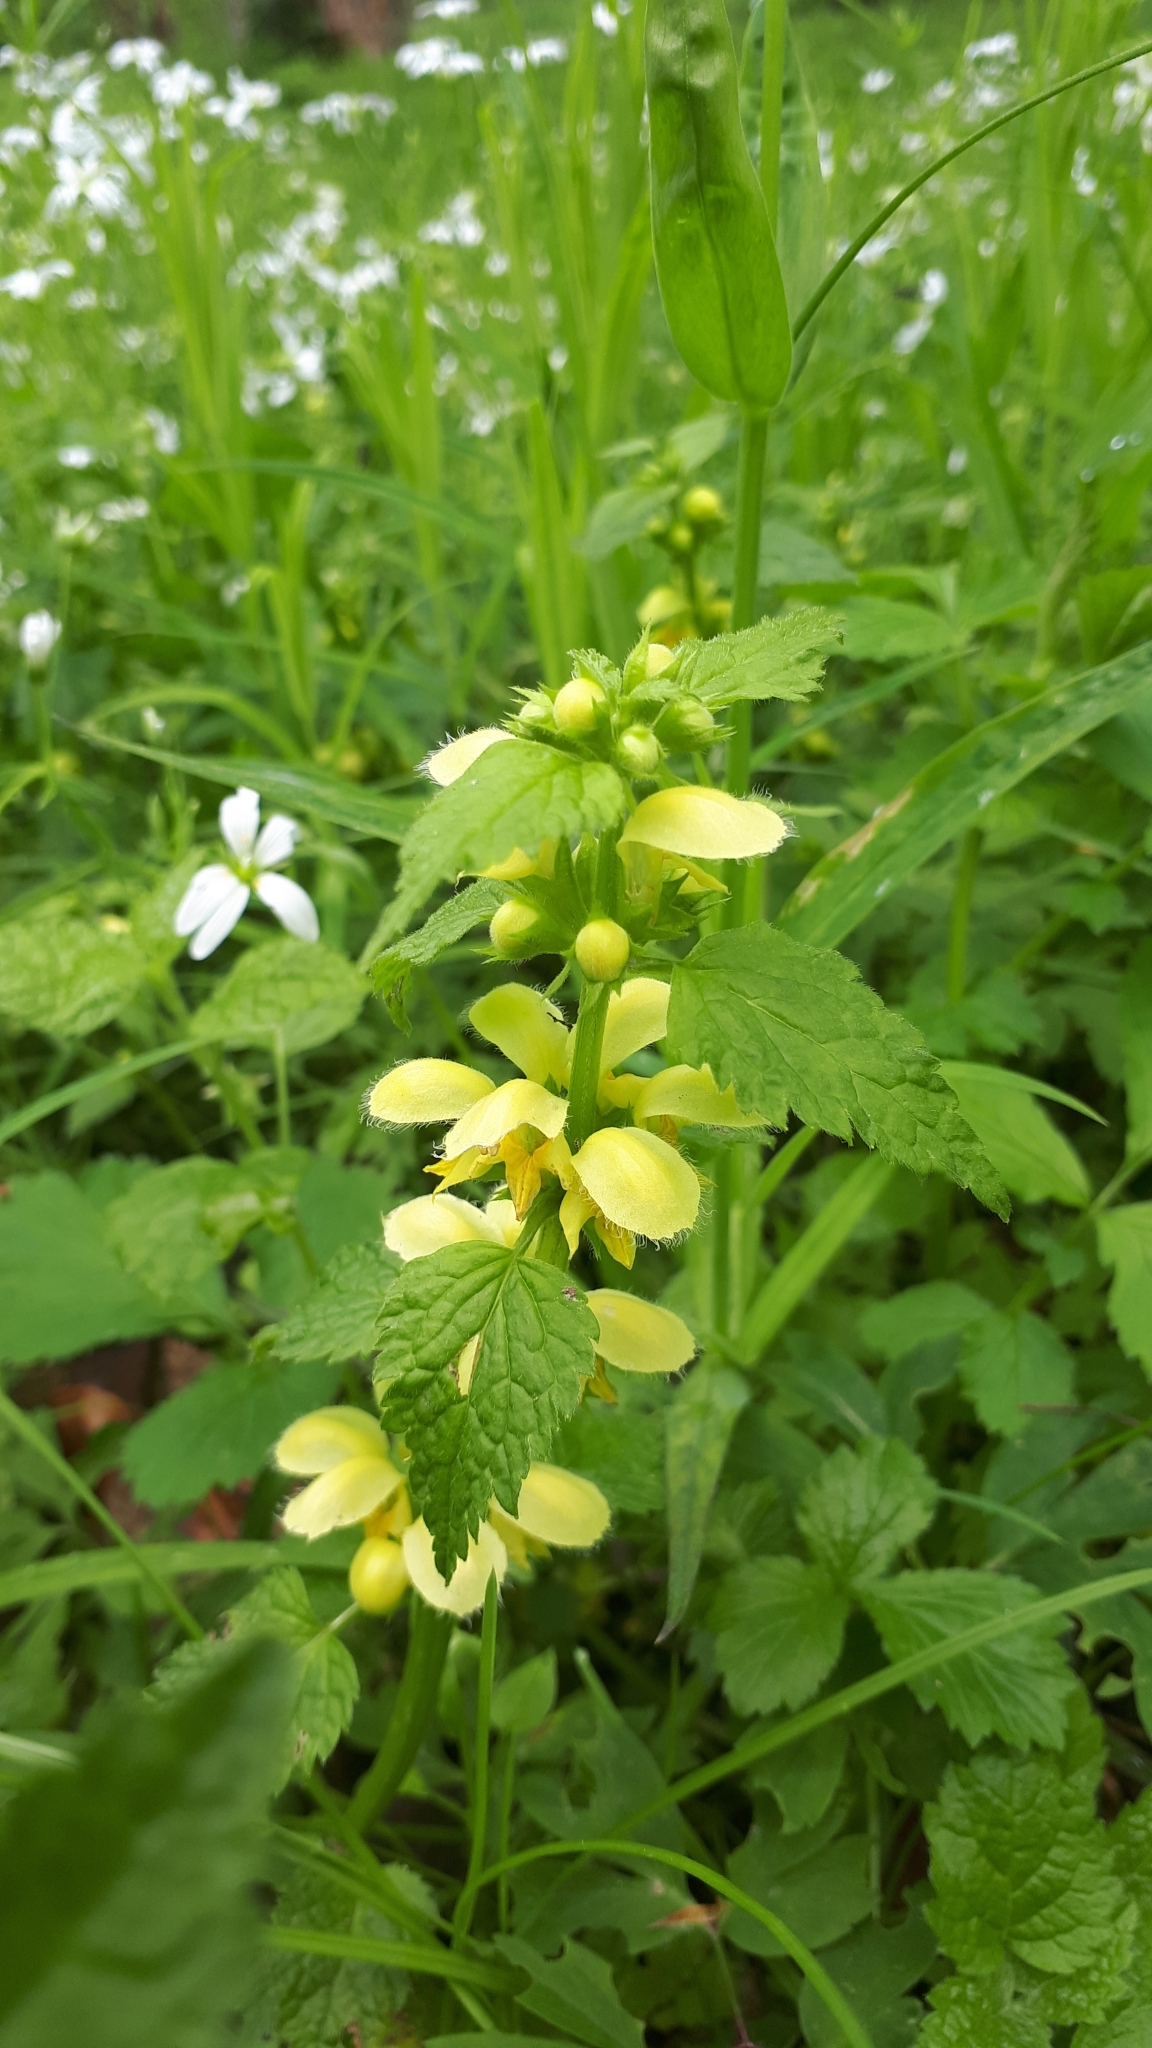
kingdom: Plantae
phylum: Tracheophyta
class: Magnoliopsida
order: Lamiales
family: Lamiaceae
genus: Lamium
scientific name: Lamium galeobdolon
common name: Yellow archangel
